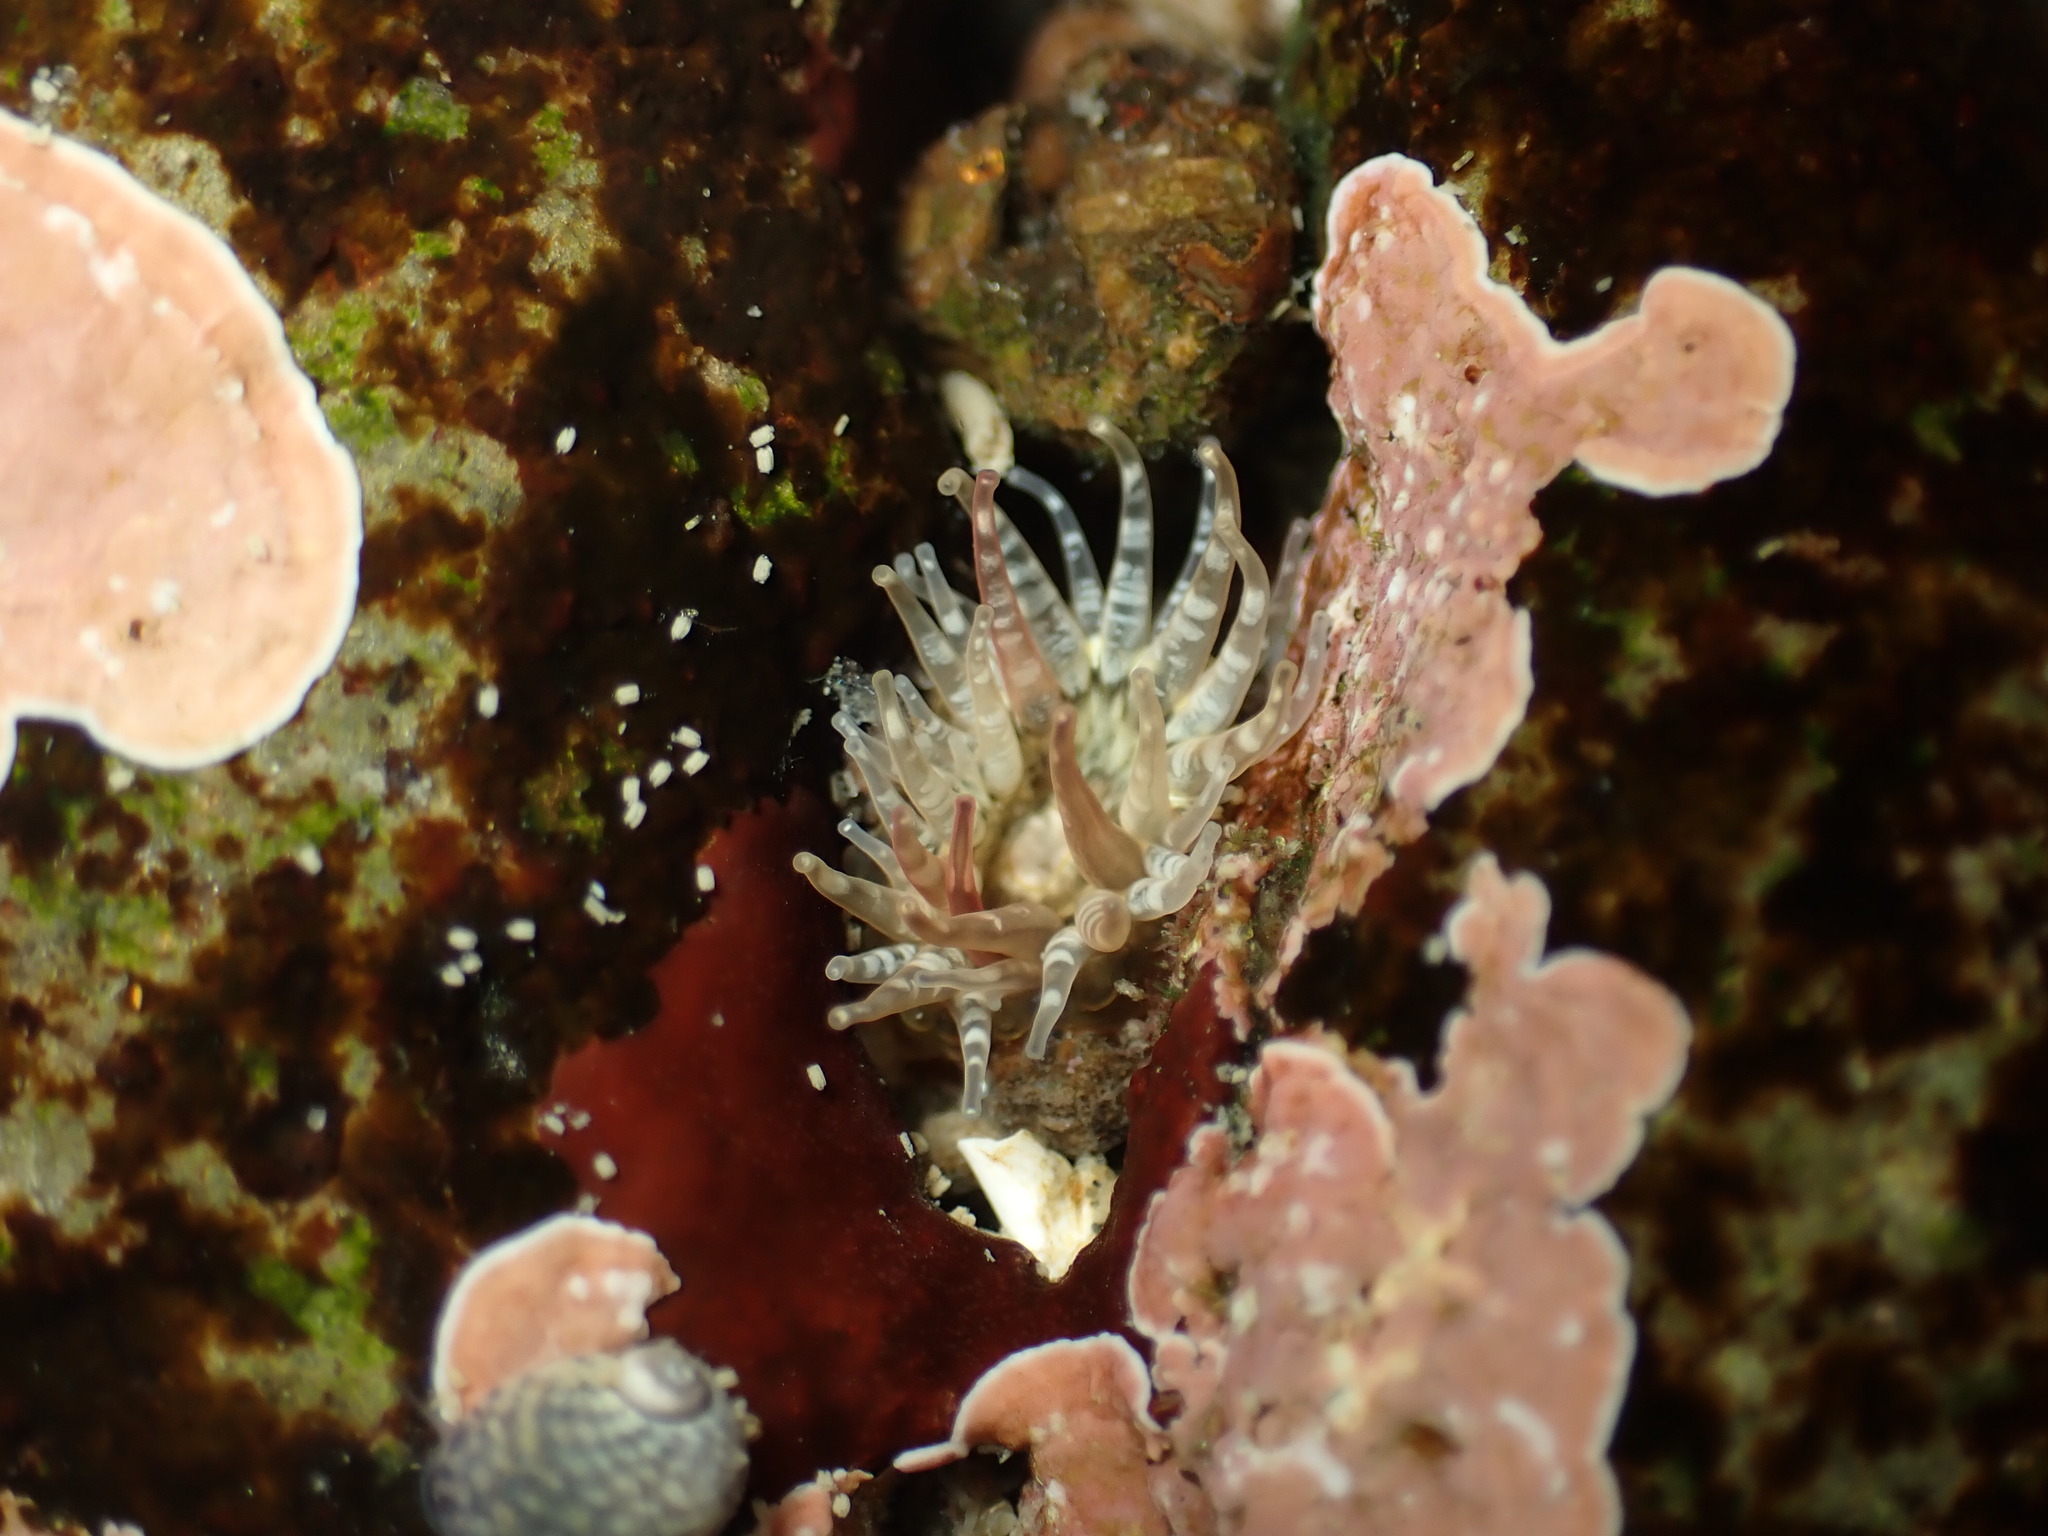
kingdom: Animalia
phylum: Mollusca
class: Gastropoda
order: Trochida
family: Trochidae
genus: Fossarina
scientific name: Fossarina rimata
